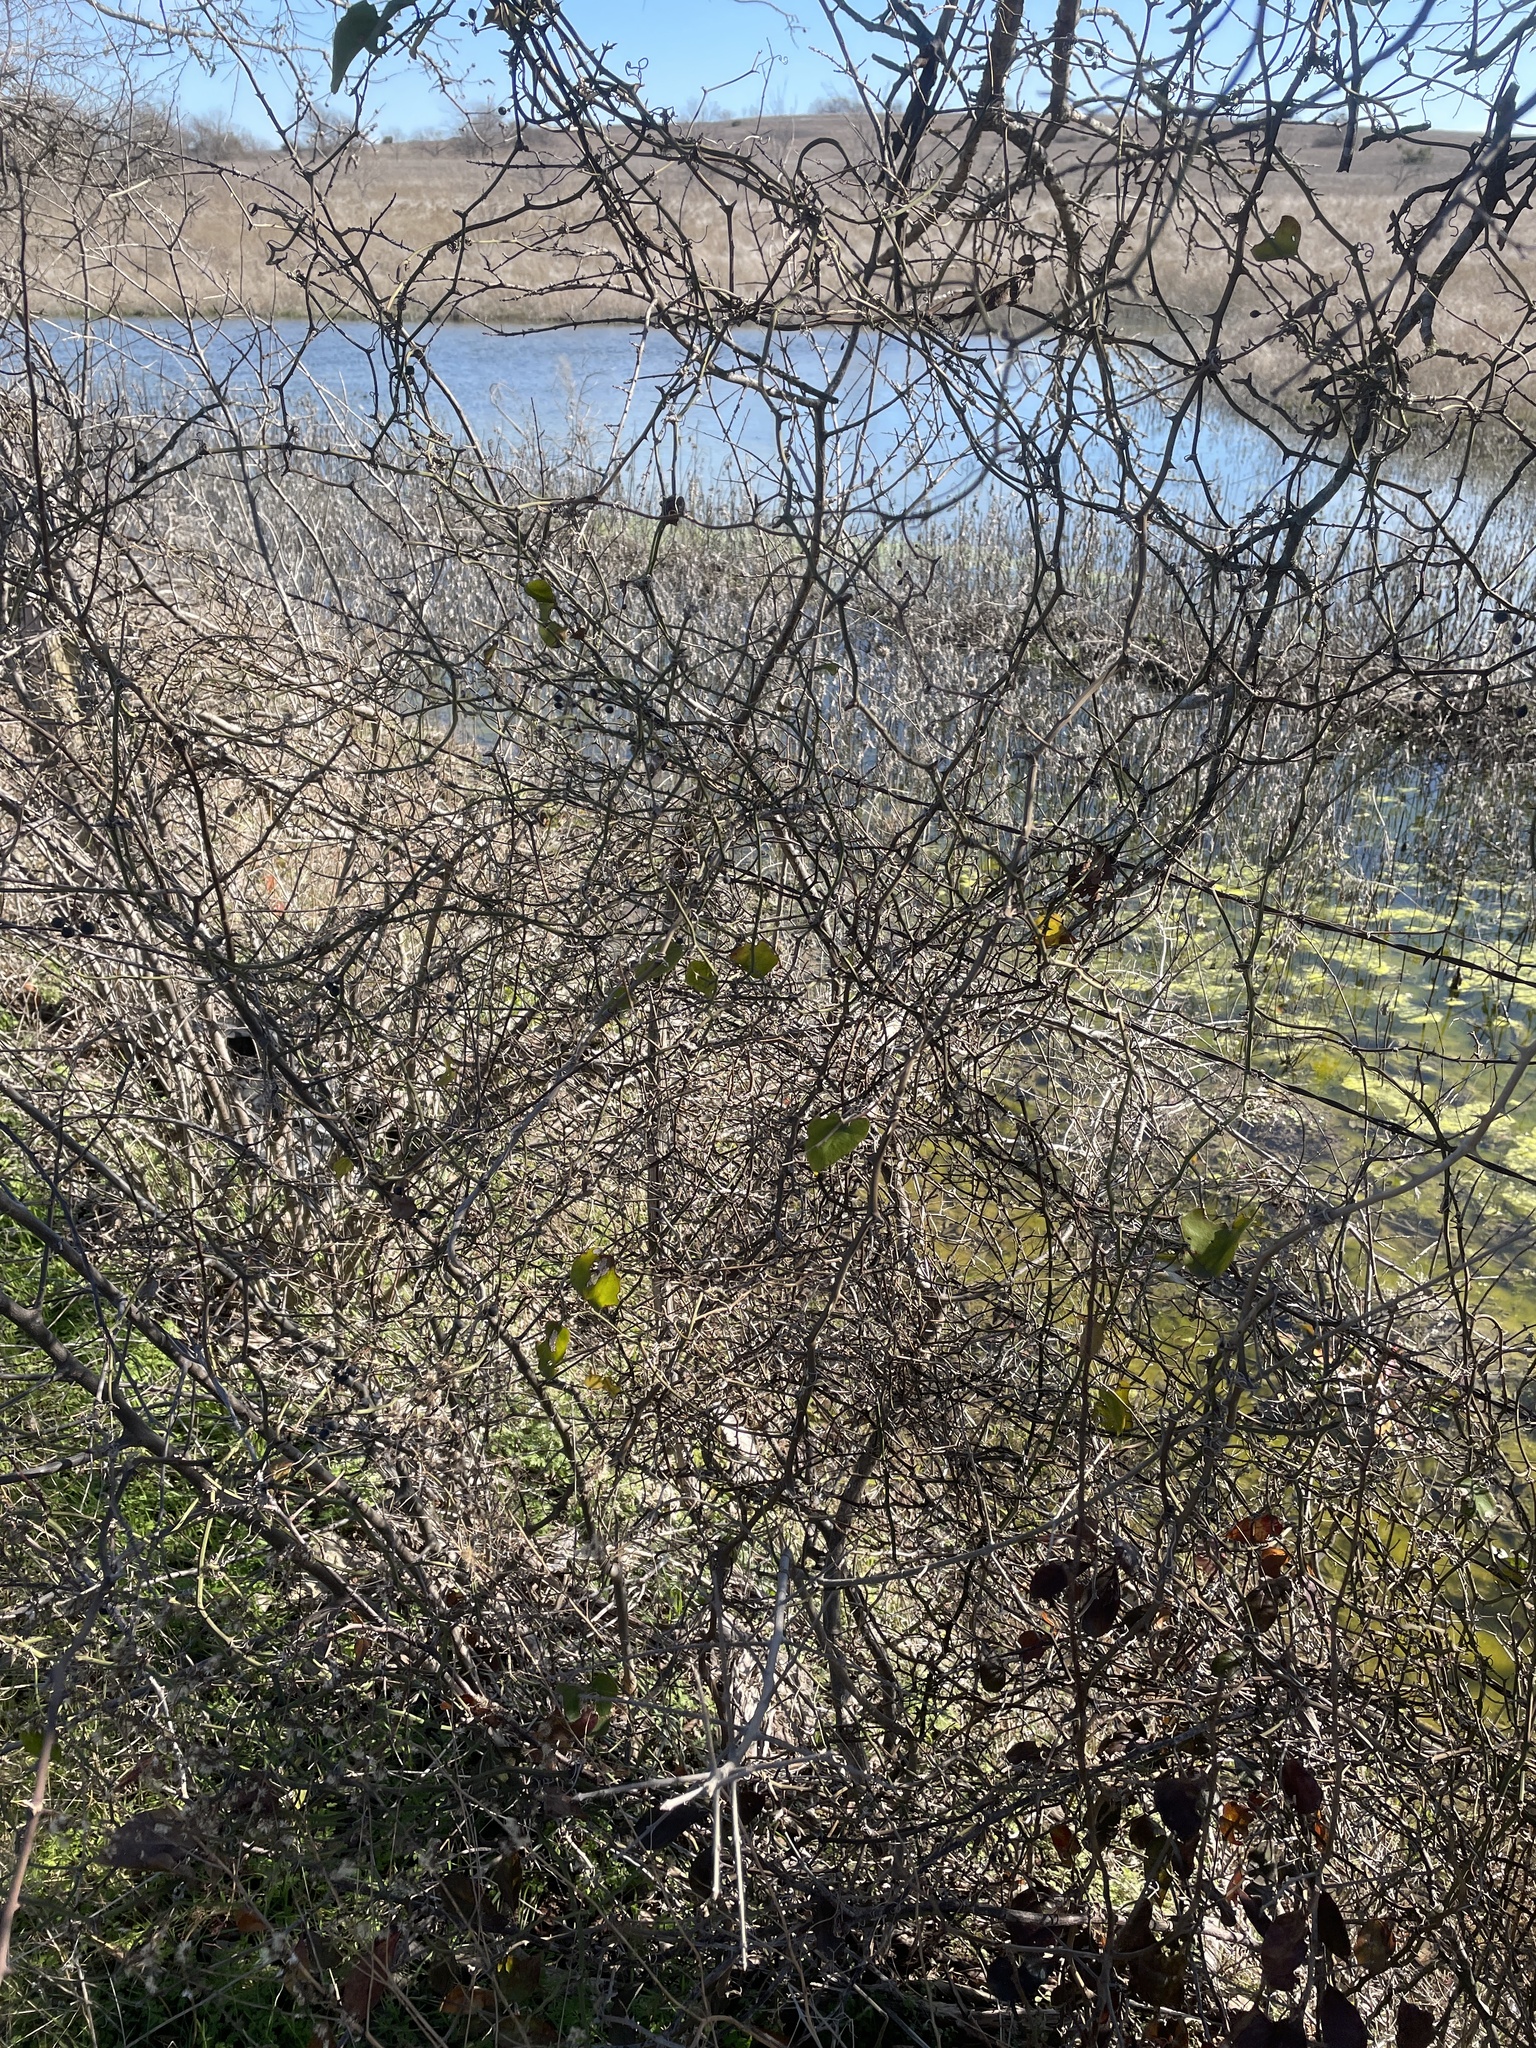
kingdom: Plantae
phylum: Tracheophyta
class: Liliopsida
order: Liliales
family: Smilacaceae
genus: Smilax
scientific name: Smilax bona-nox
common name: Catbrier
